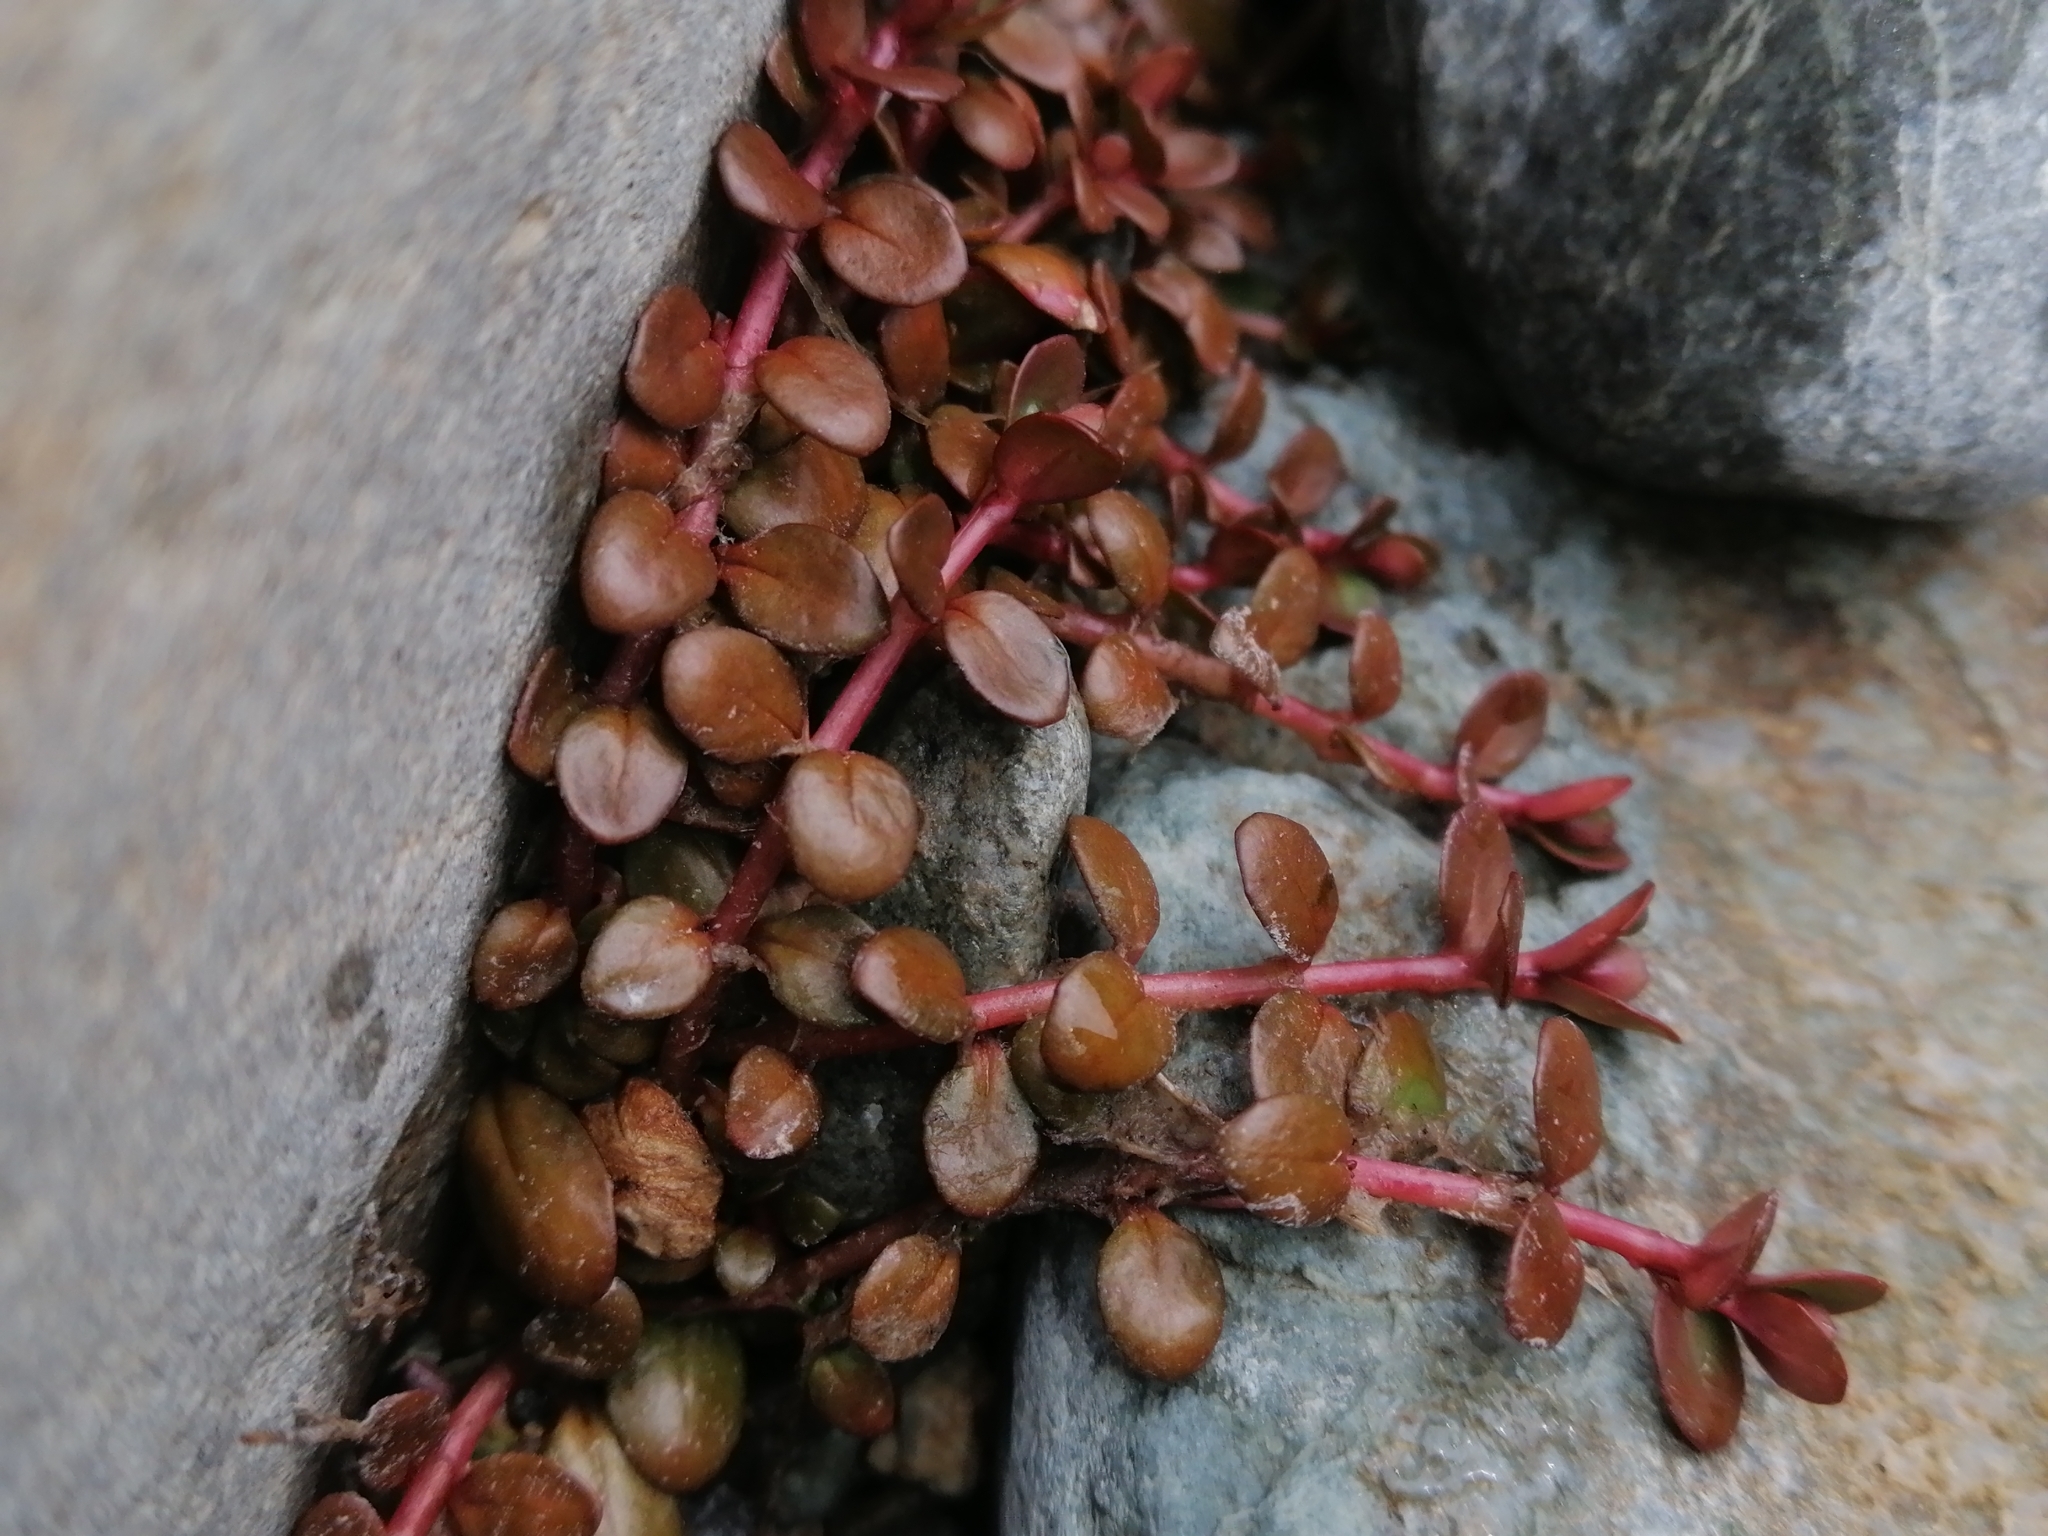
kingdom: Plantae
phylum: Tracheophyta
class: Magnoliopsida
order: Myrtales
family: Onagraceae
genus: Epilobium
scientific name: Epilobium brunnescens
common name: New zealand willowherb
